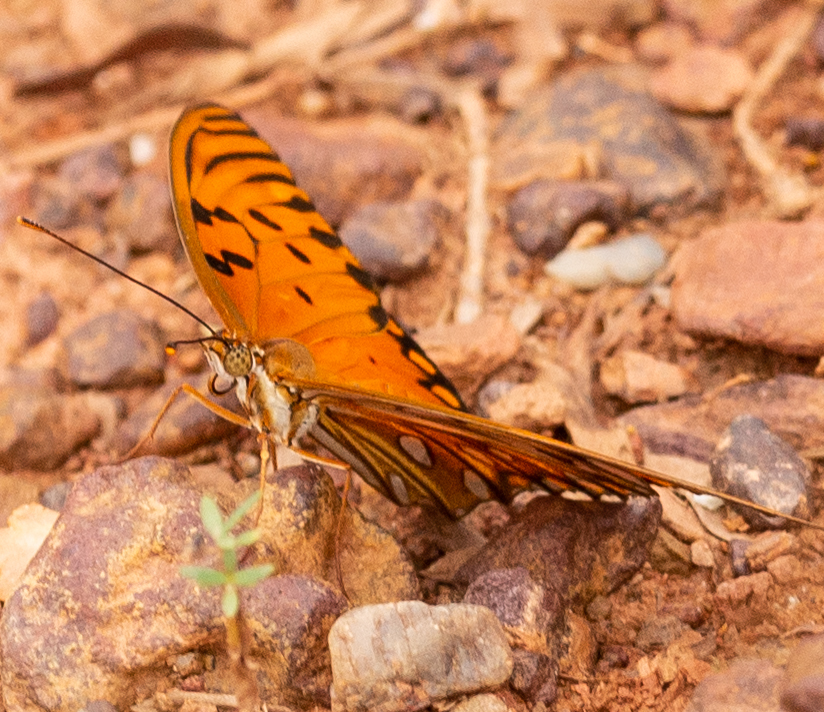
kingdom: Animalia
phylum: Arthropoda
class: Insecta
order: Lepidoptera
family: Nymphalidae
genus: Dione
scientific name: Dione vanillae
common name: Gulf fritillary
